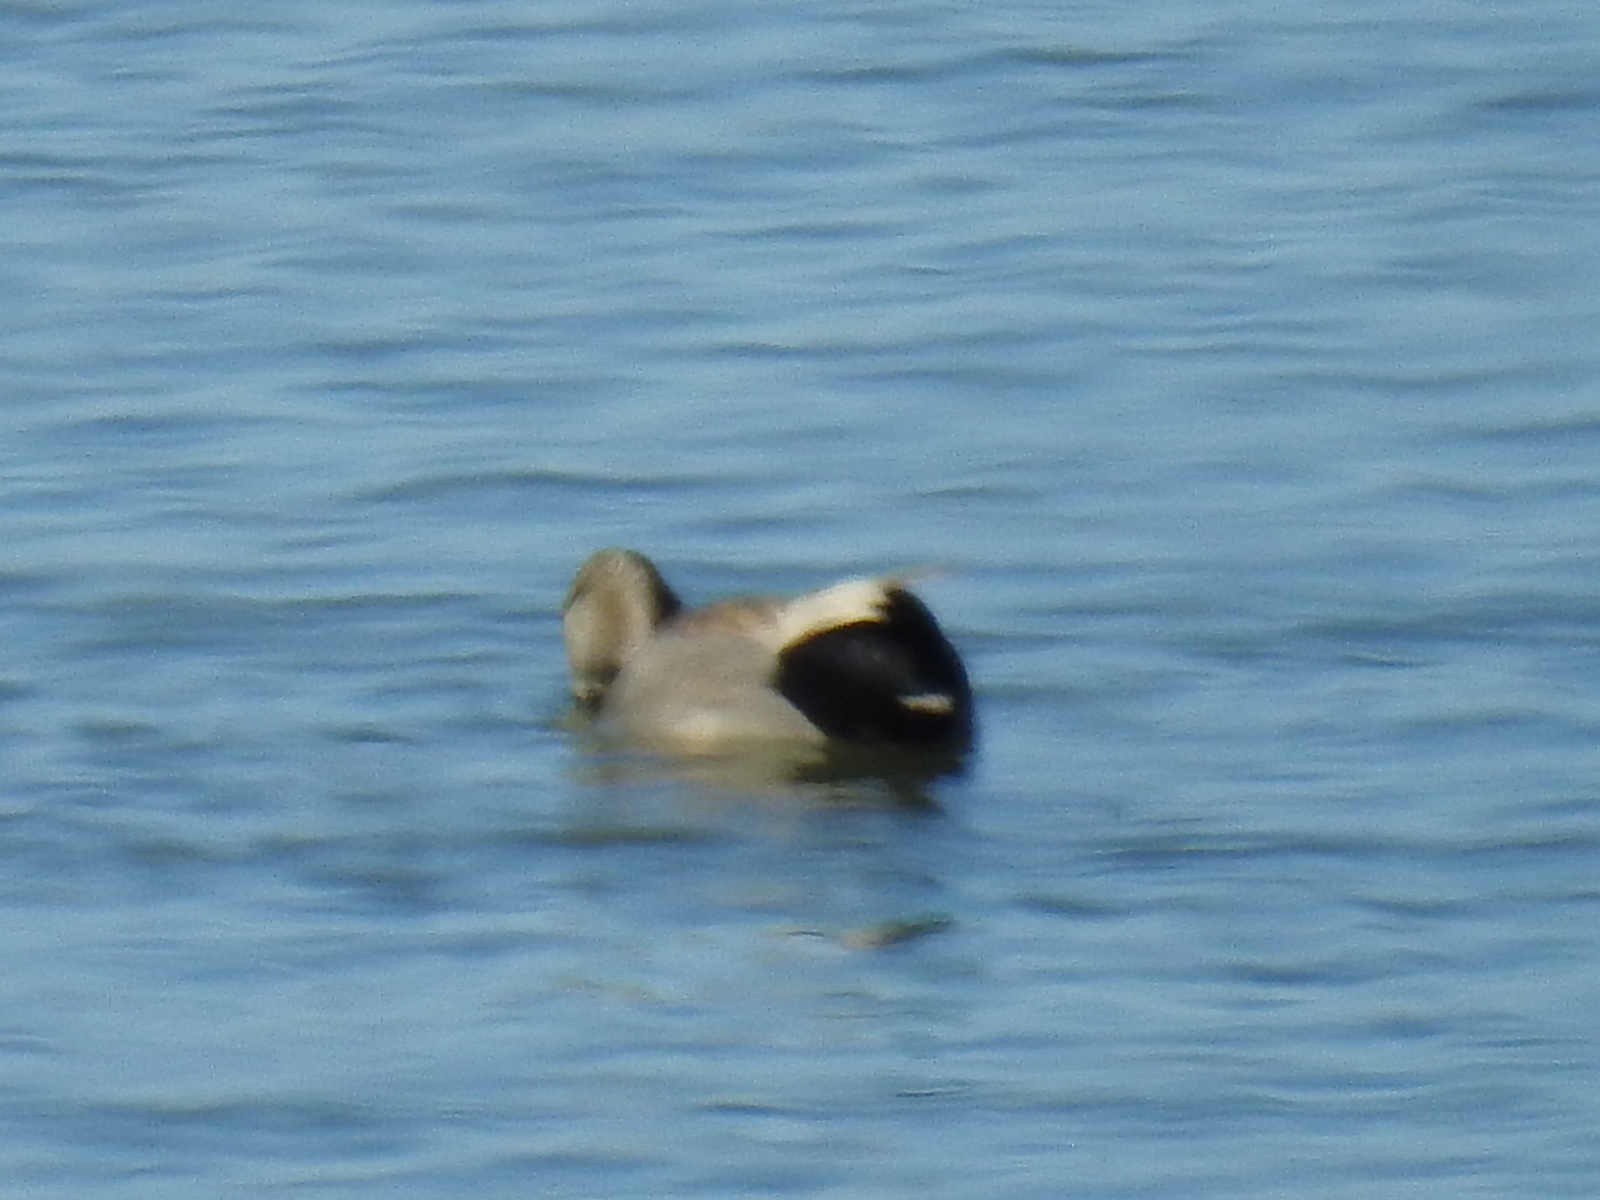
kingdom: Animalia
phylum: Chordata
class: Aves
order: Anseriformes
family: Anatidae
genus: Mareca
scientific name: Mareca strepera
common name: Gadwall
